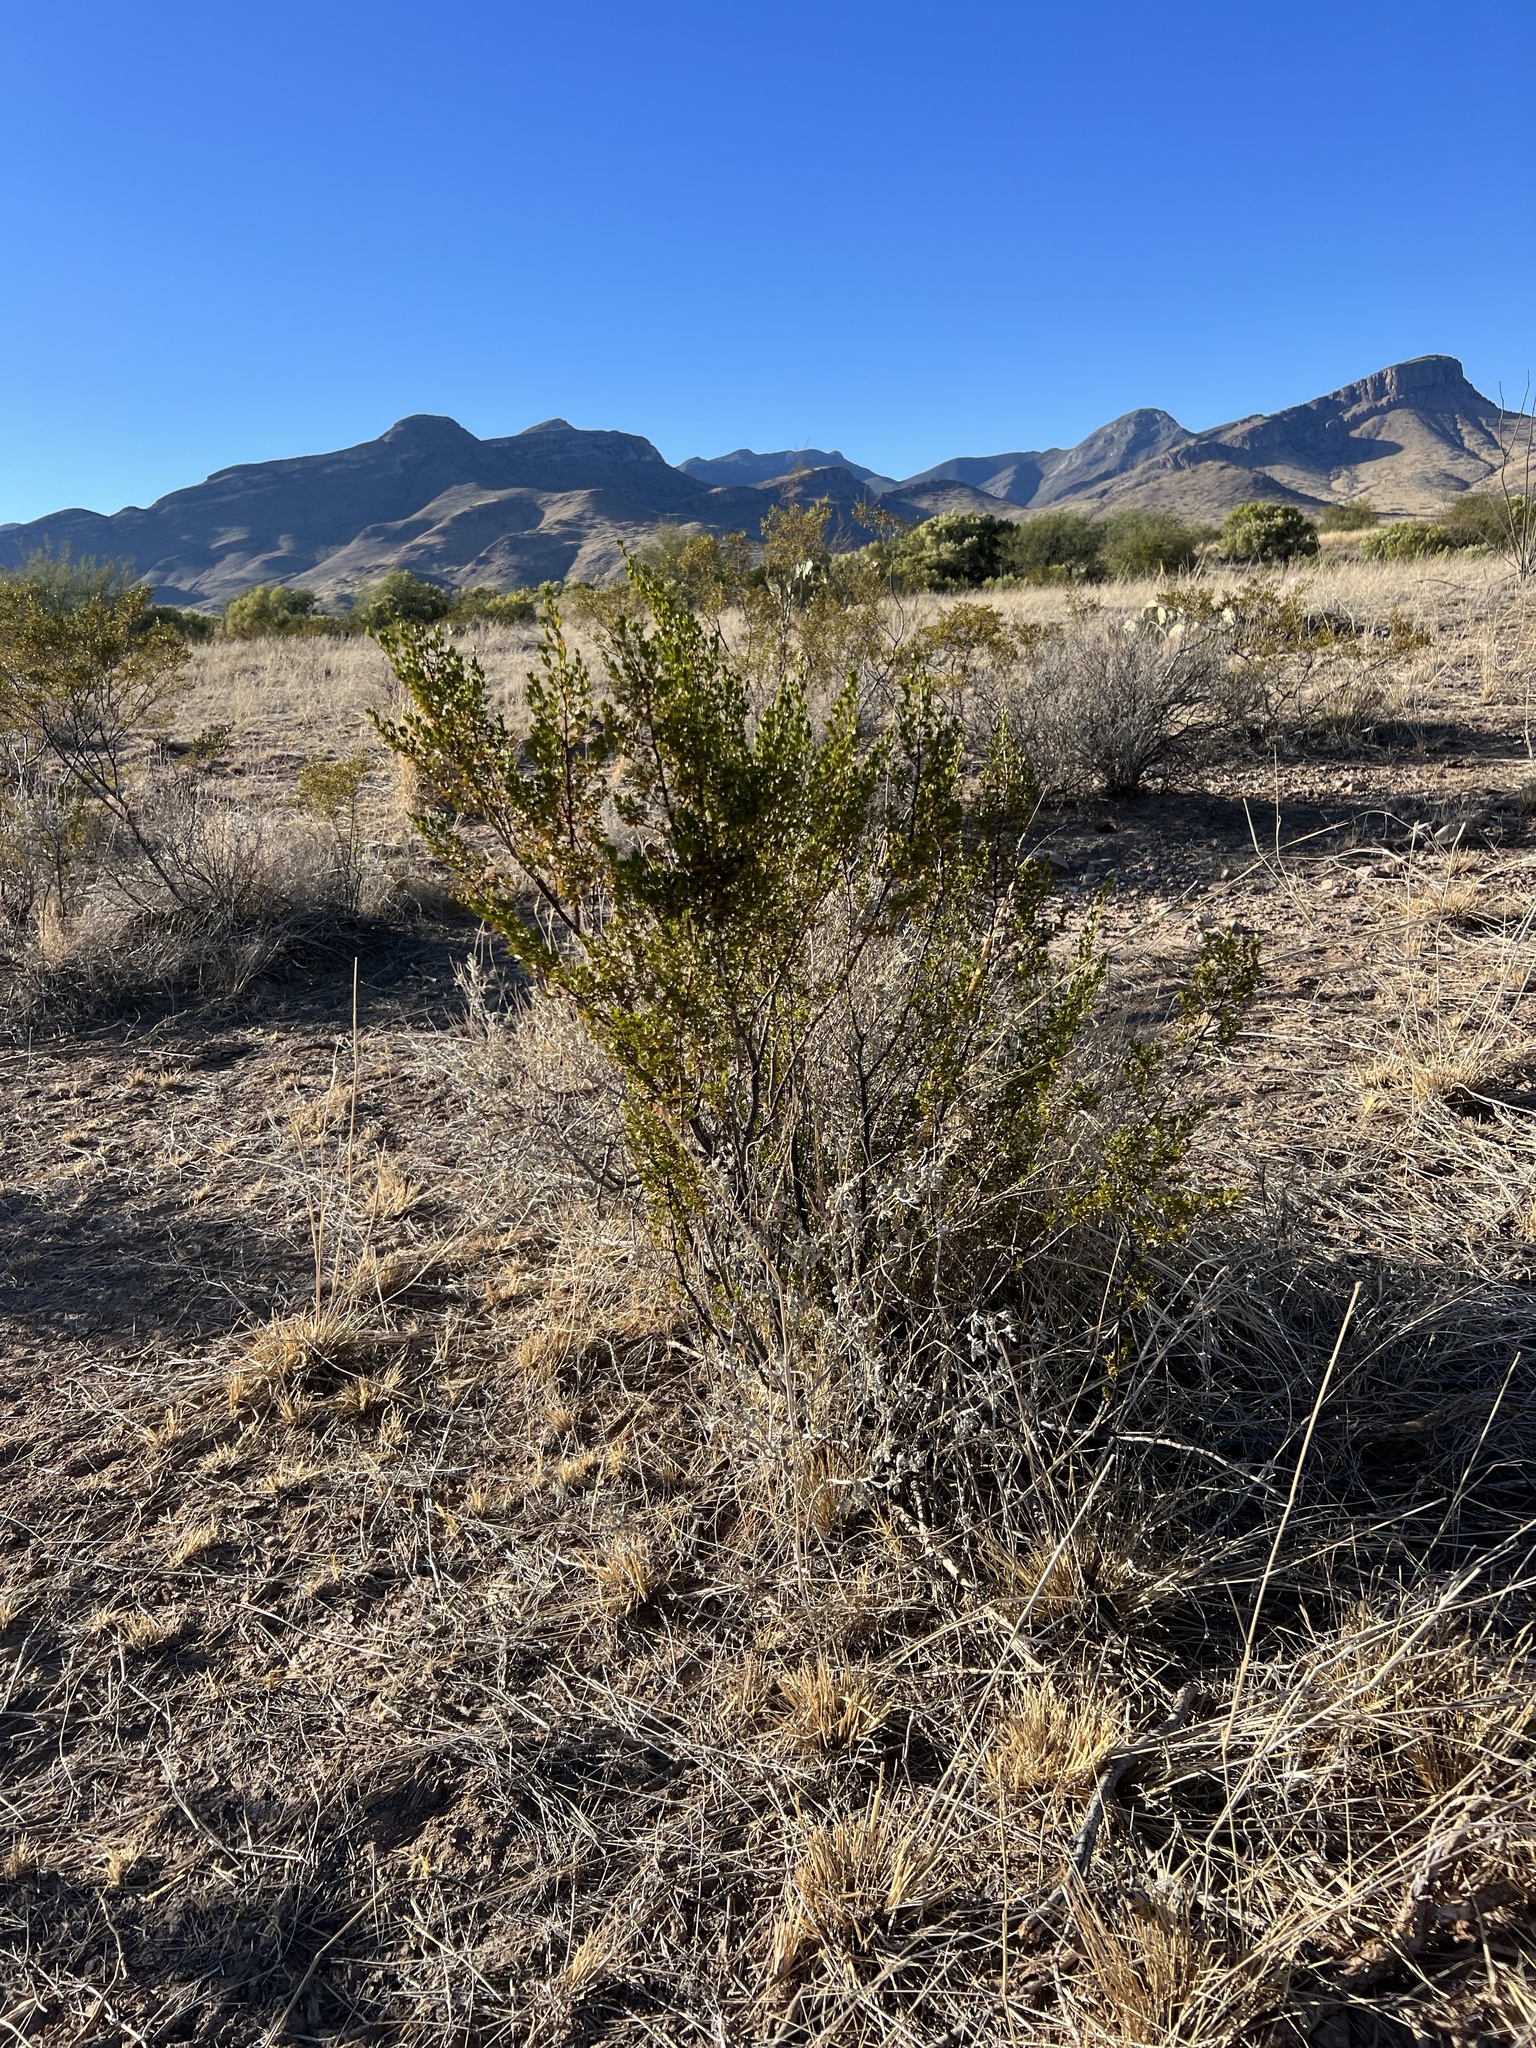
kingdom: Plantae
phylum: Tracheophyta
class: Magnoliopsida
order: Zygophyllales
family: Zygophyllaceae
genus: Larrea
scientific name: Larrea tridentata
